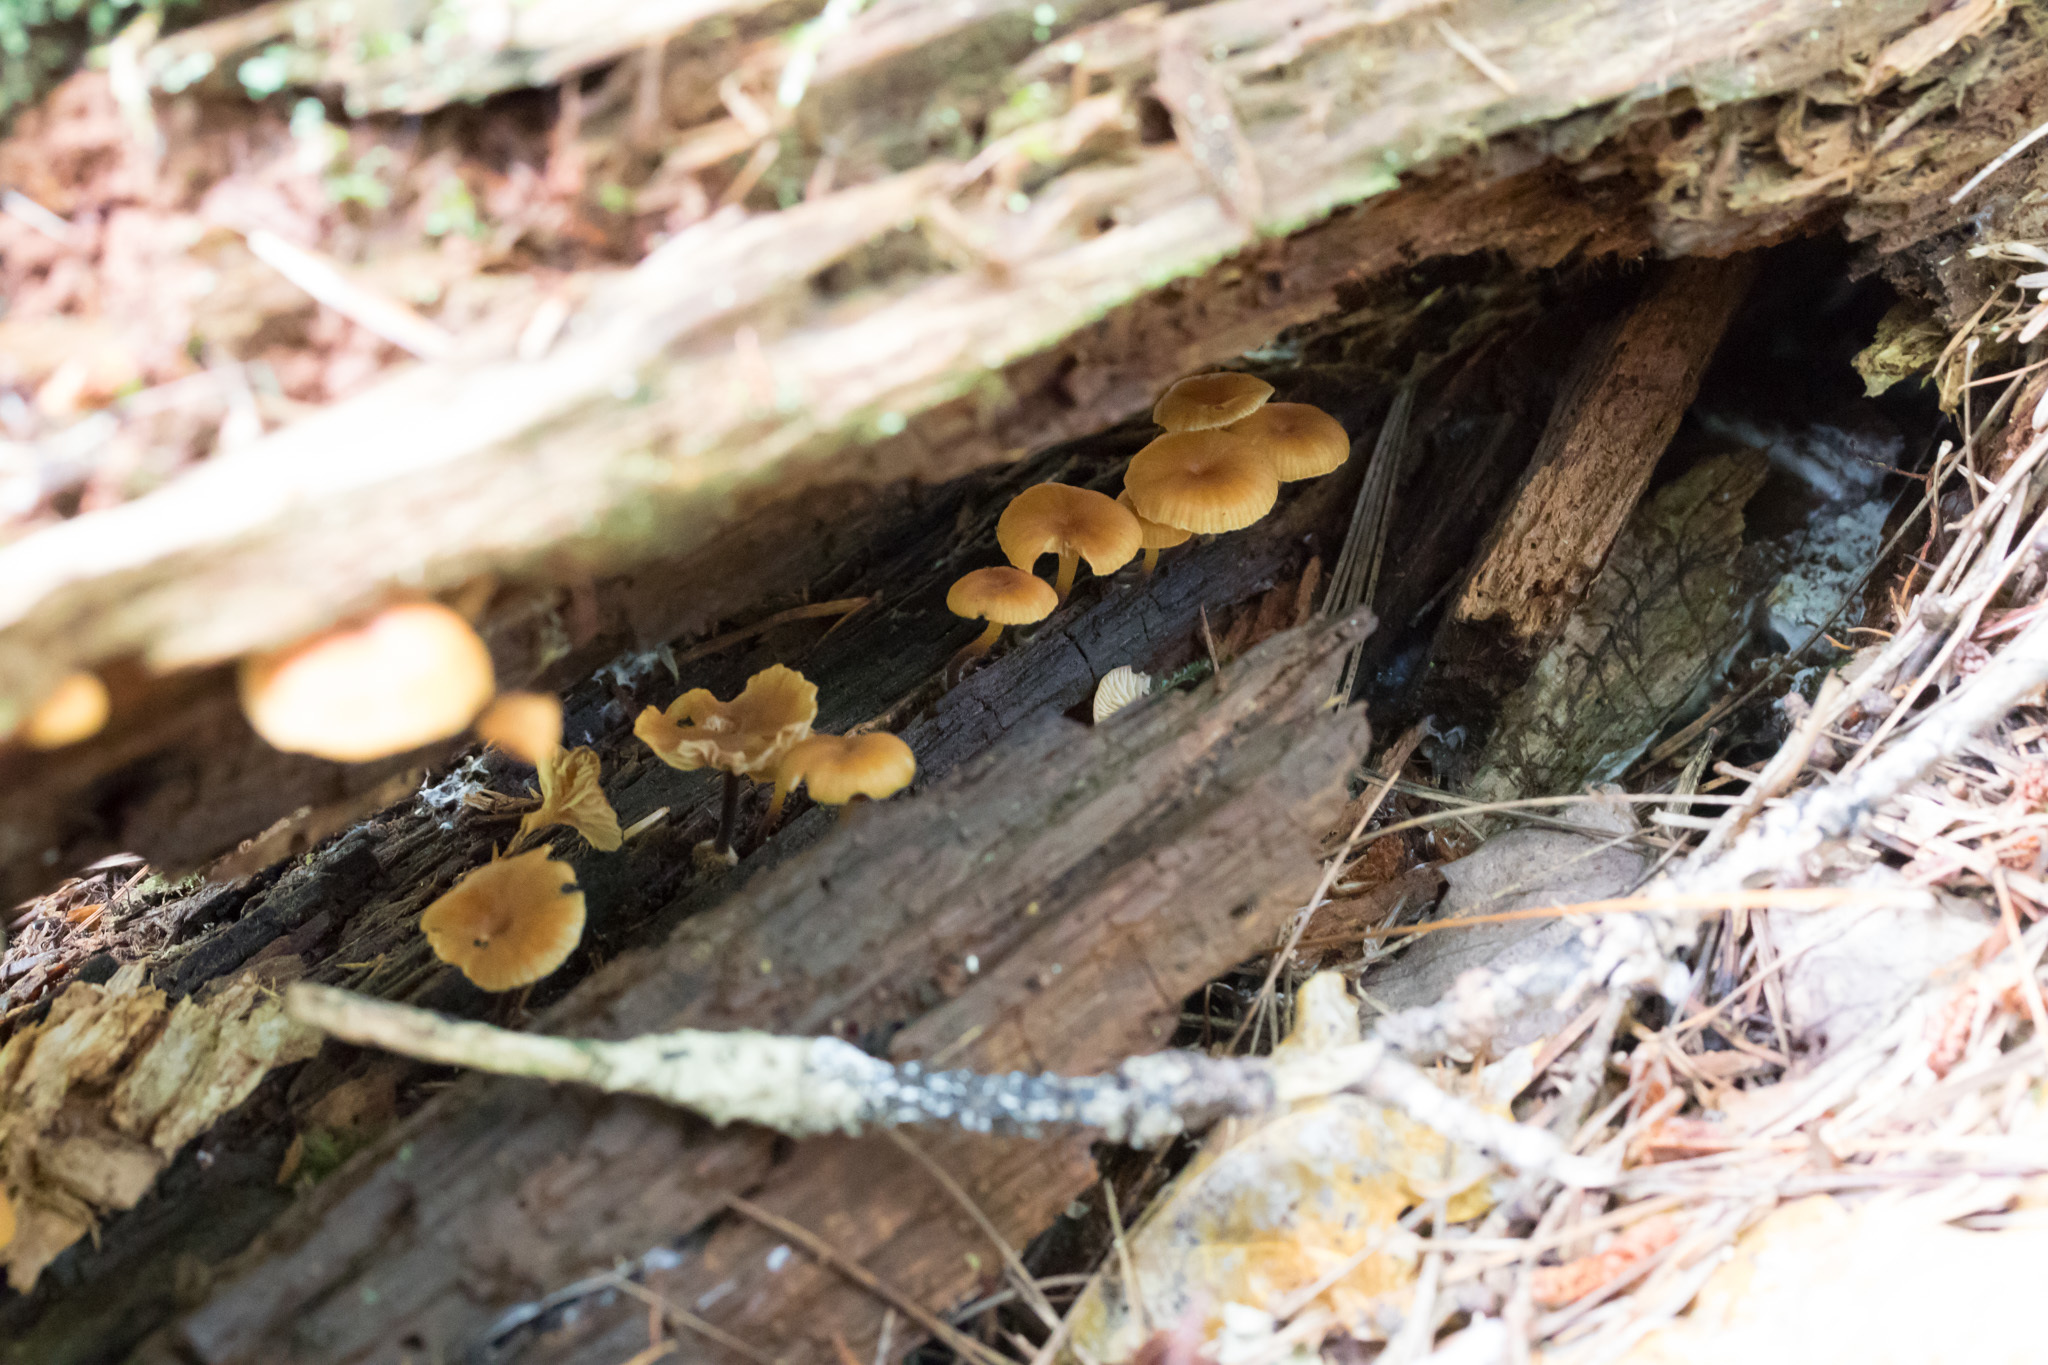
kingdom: Fungi
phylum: Basidiomycota
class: Agaricomycetes
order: Agaricales
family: Mycenaceae
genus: Xeromphalina
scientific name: Xeromphalina campanella
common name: Pinewood gingertail
